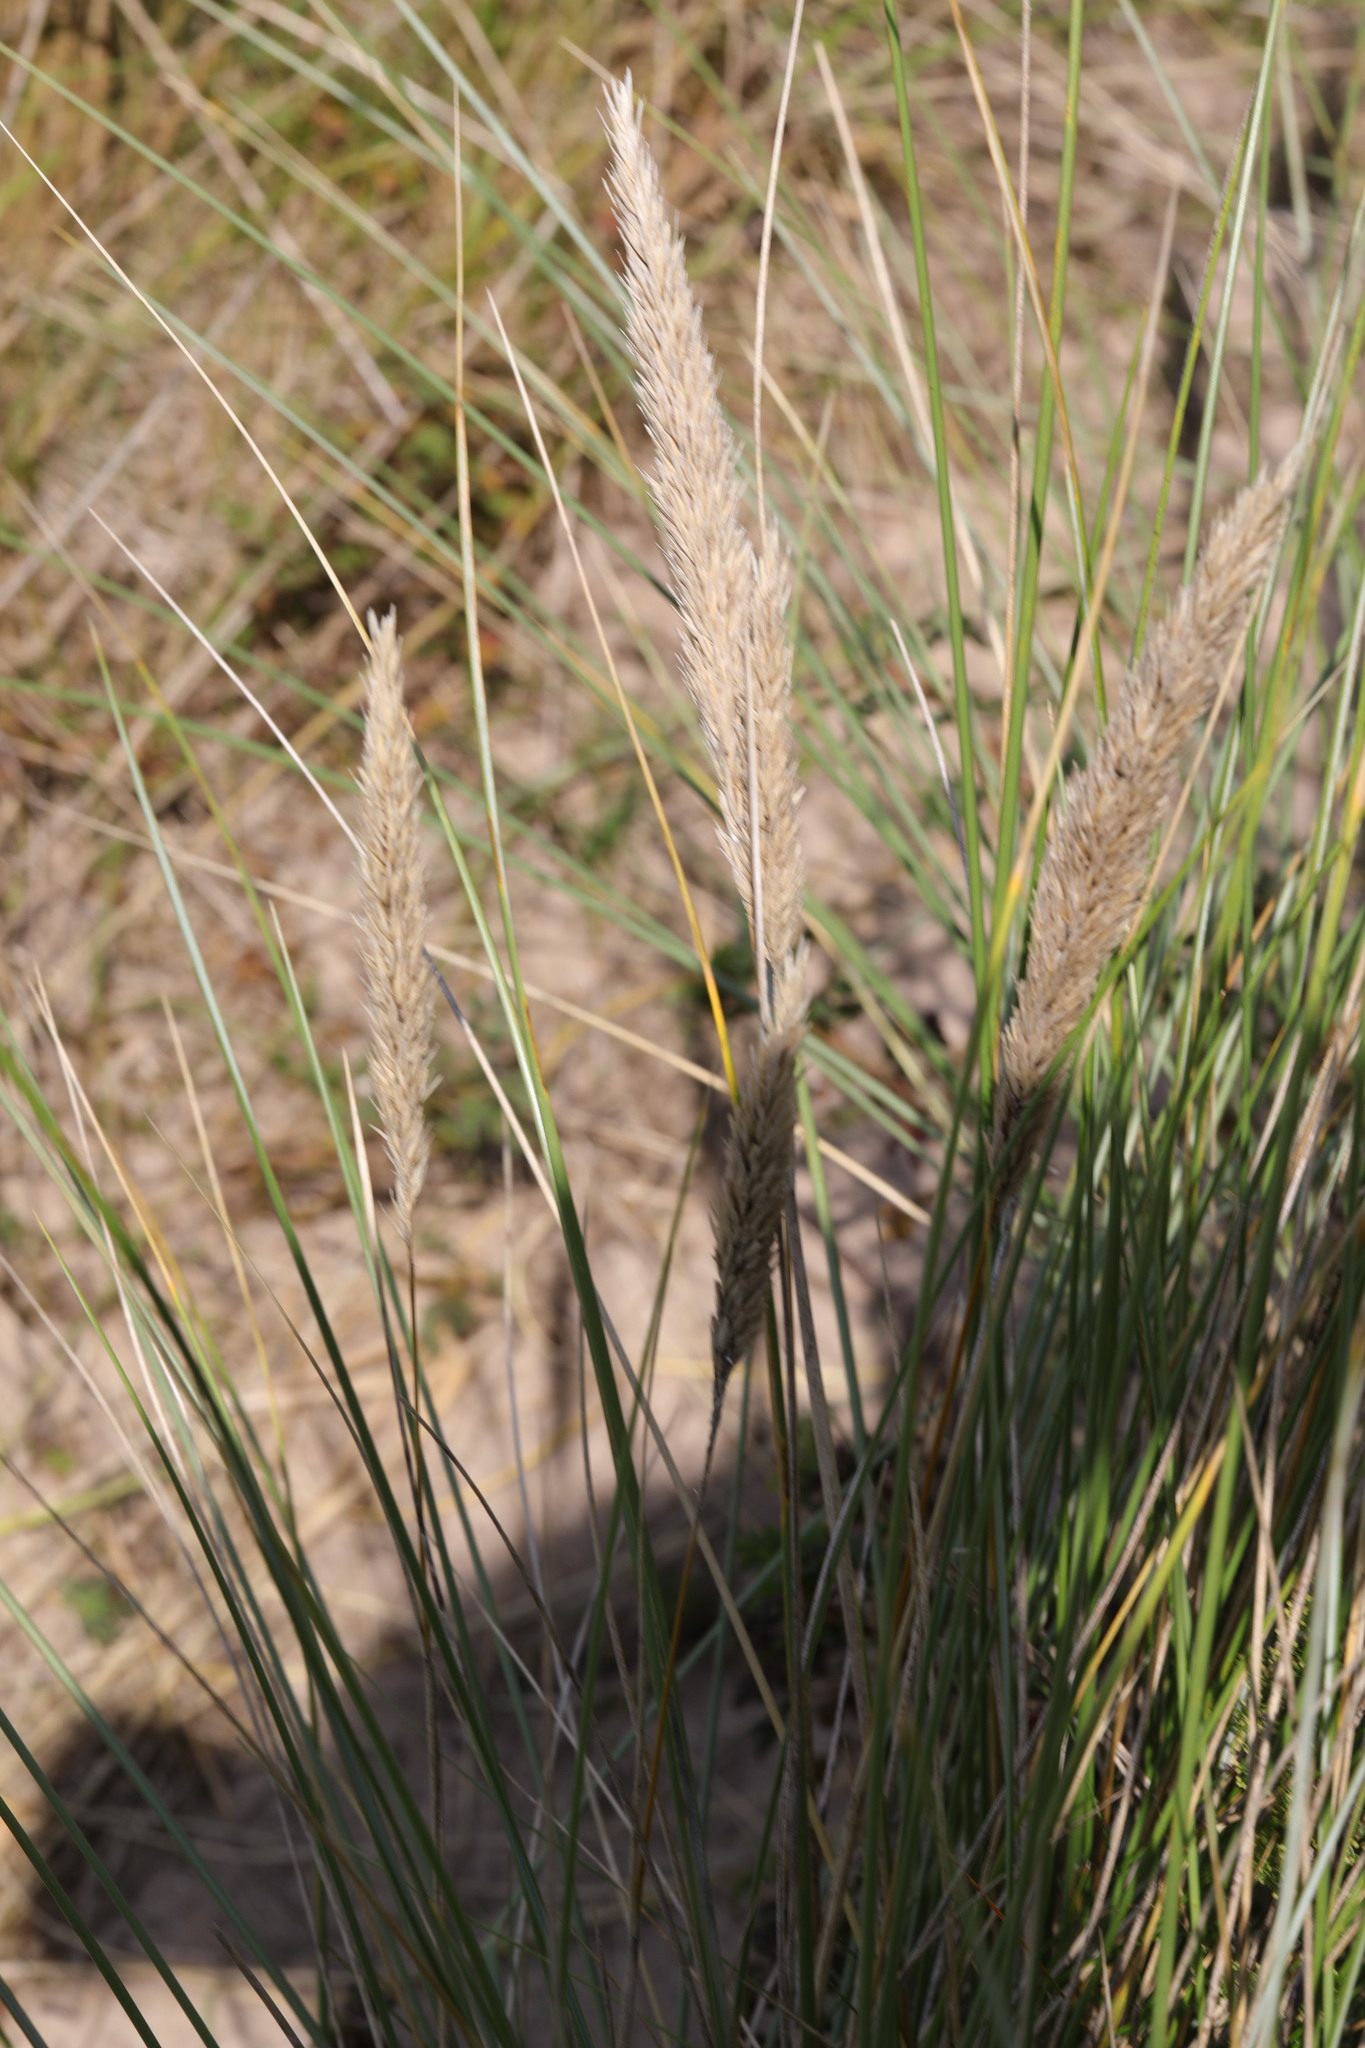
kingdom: Plantae
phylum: Tracheophyta
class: Liliopsida
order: Poales
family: Poaceae
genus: Calamagrostis
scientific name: Calamagrostis arenaria
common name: European beachgrass
